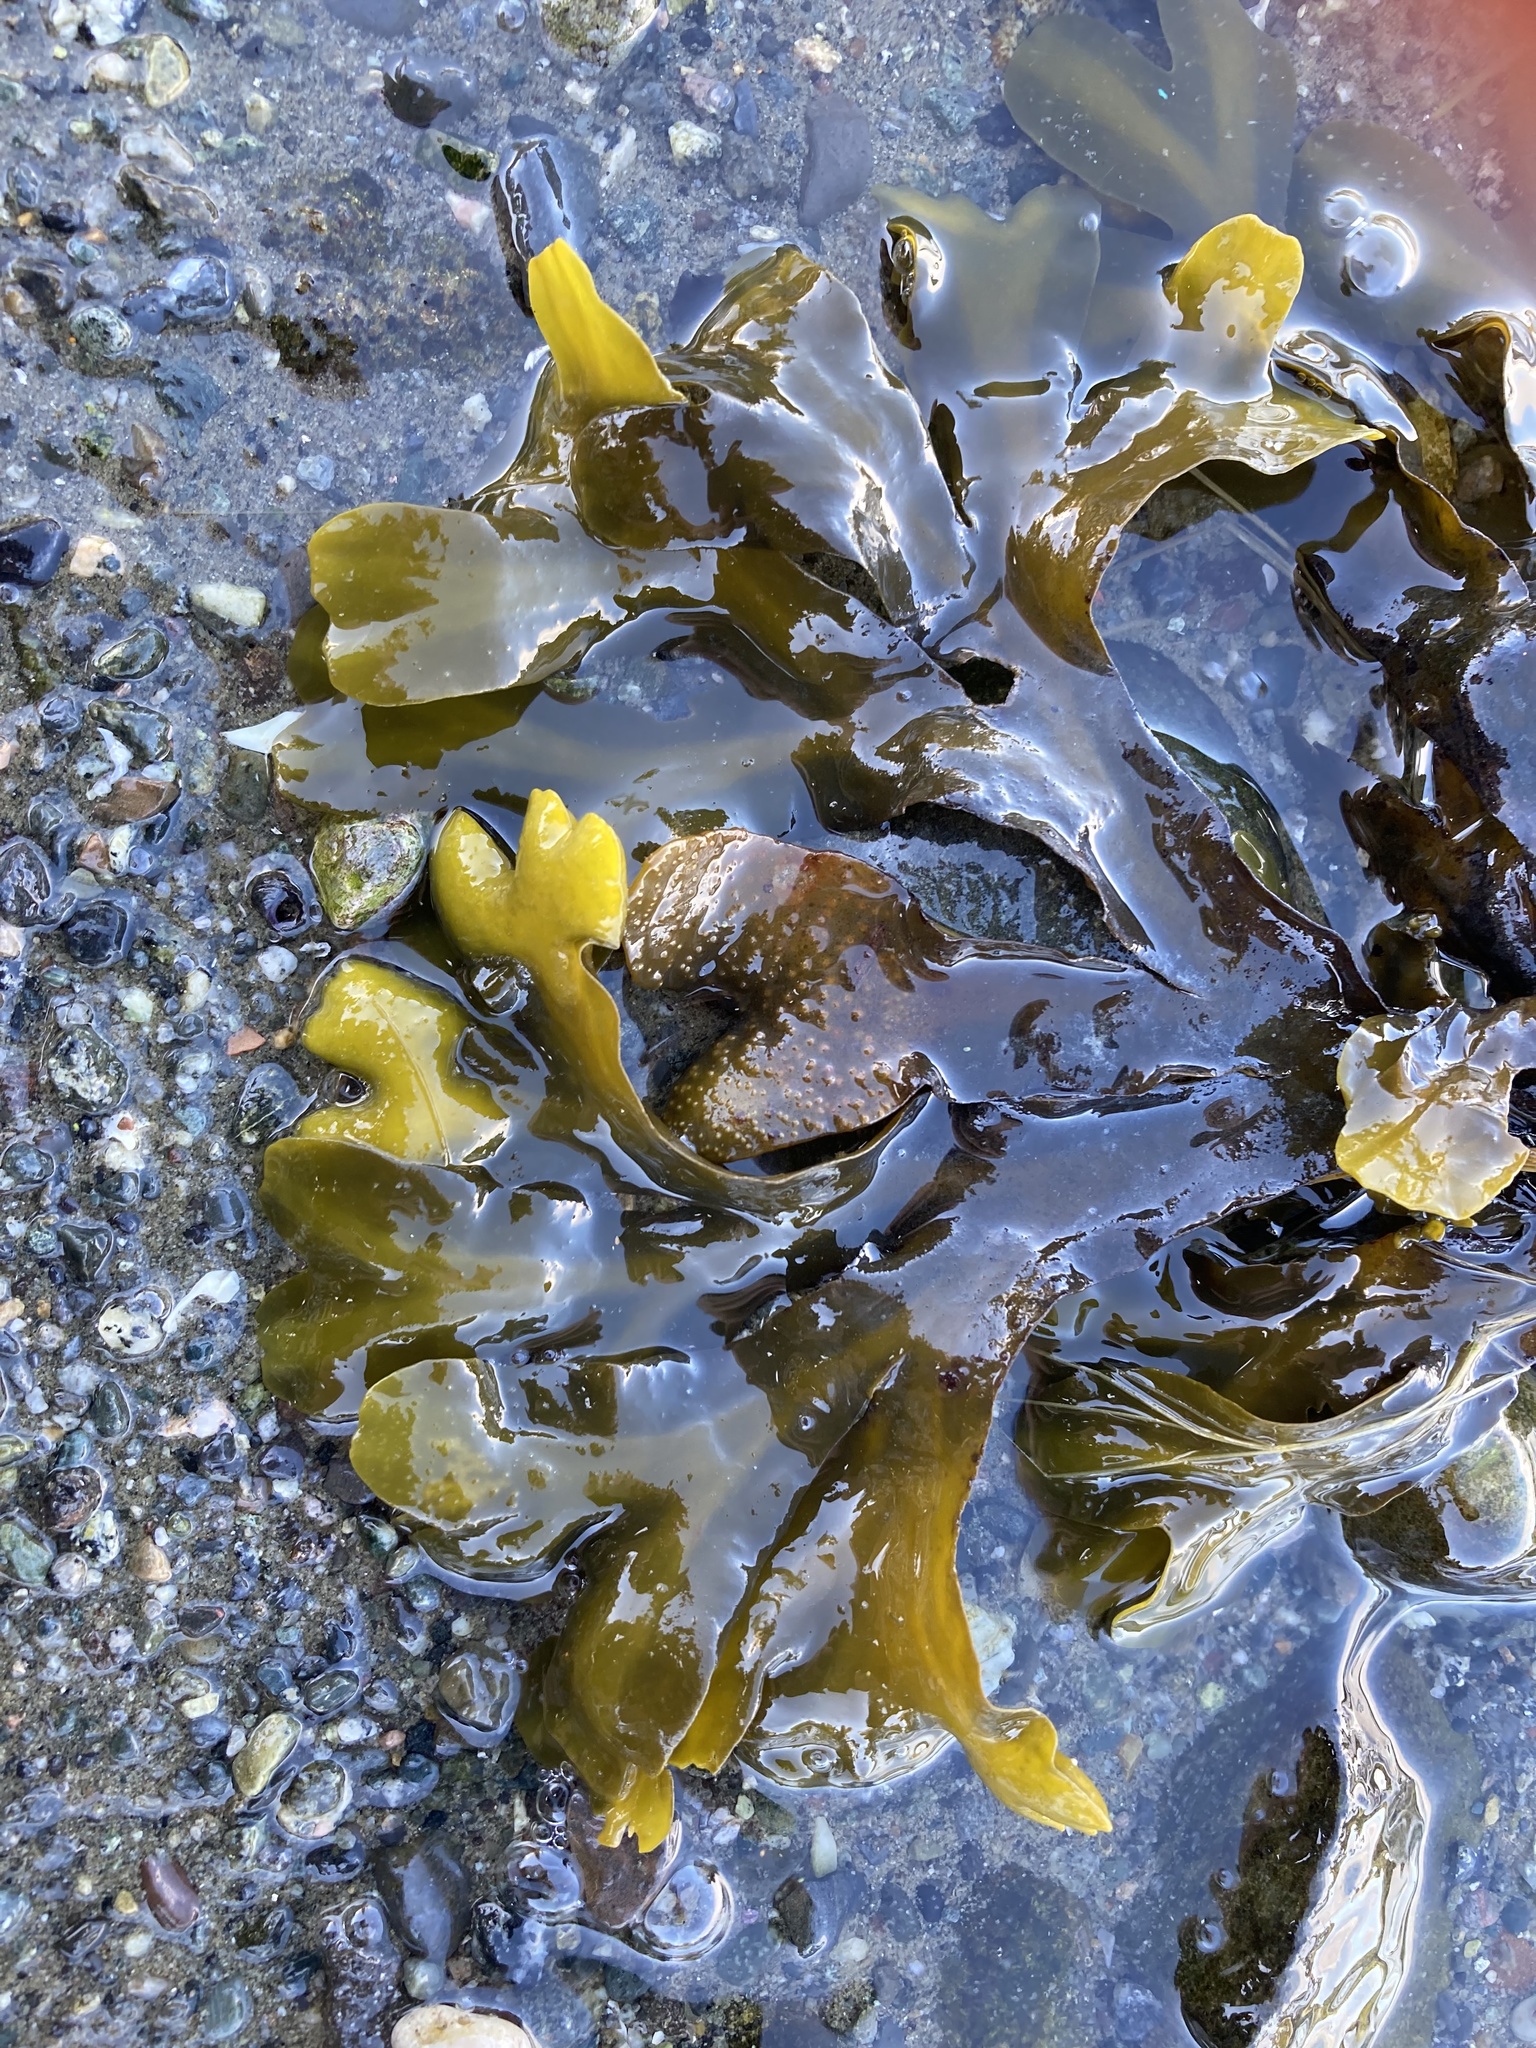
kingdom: Chromista
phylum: Ochrophyta
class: Phaeophyceae
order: Fucales
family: Fucaceae
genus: Fucus
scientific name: Fucus distichus
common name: Rockweed
